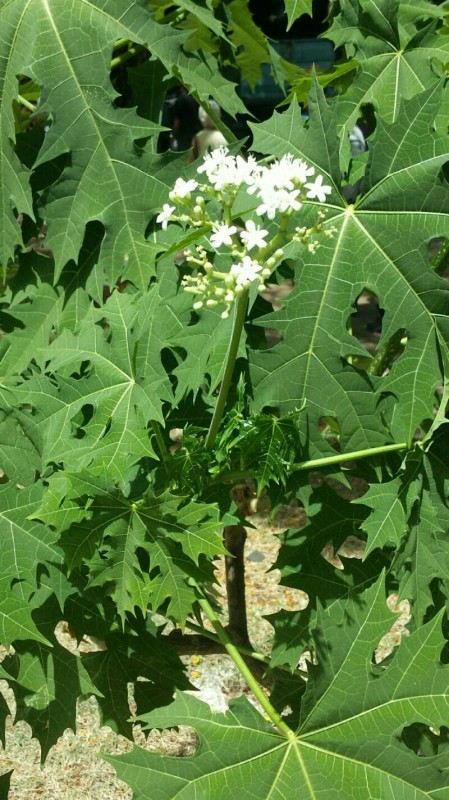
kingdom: Plantae
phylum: Tracheophyta
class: Magnoliopsida
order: Malpighiales
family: Euphorbiaceae
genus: Cnidoscolus
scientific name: Cnidoscolus aconitifolius
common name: Cabbage-star
